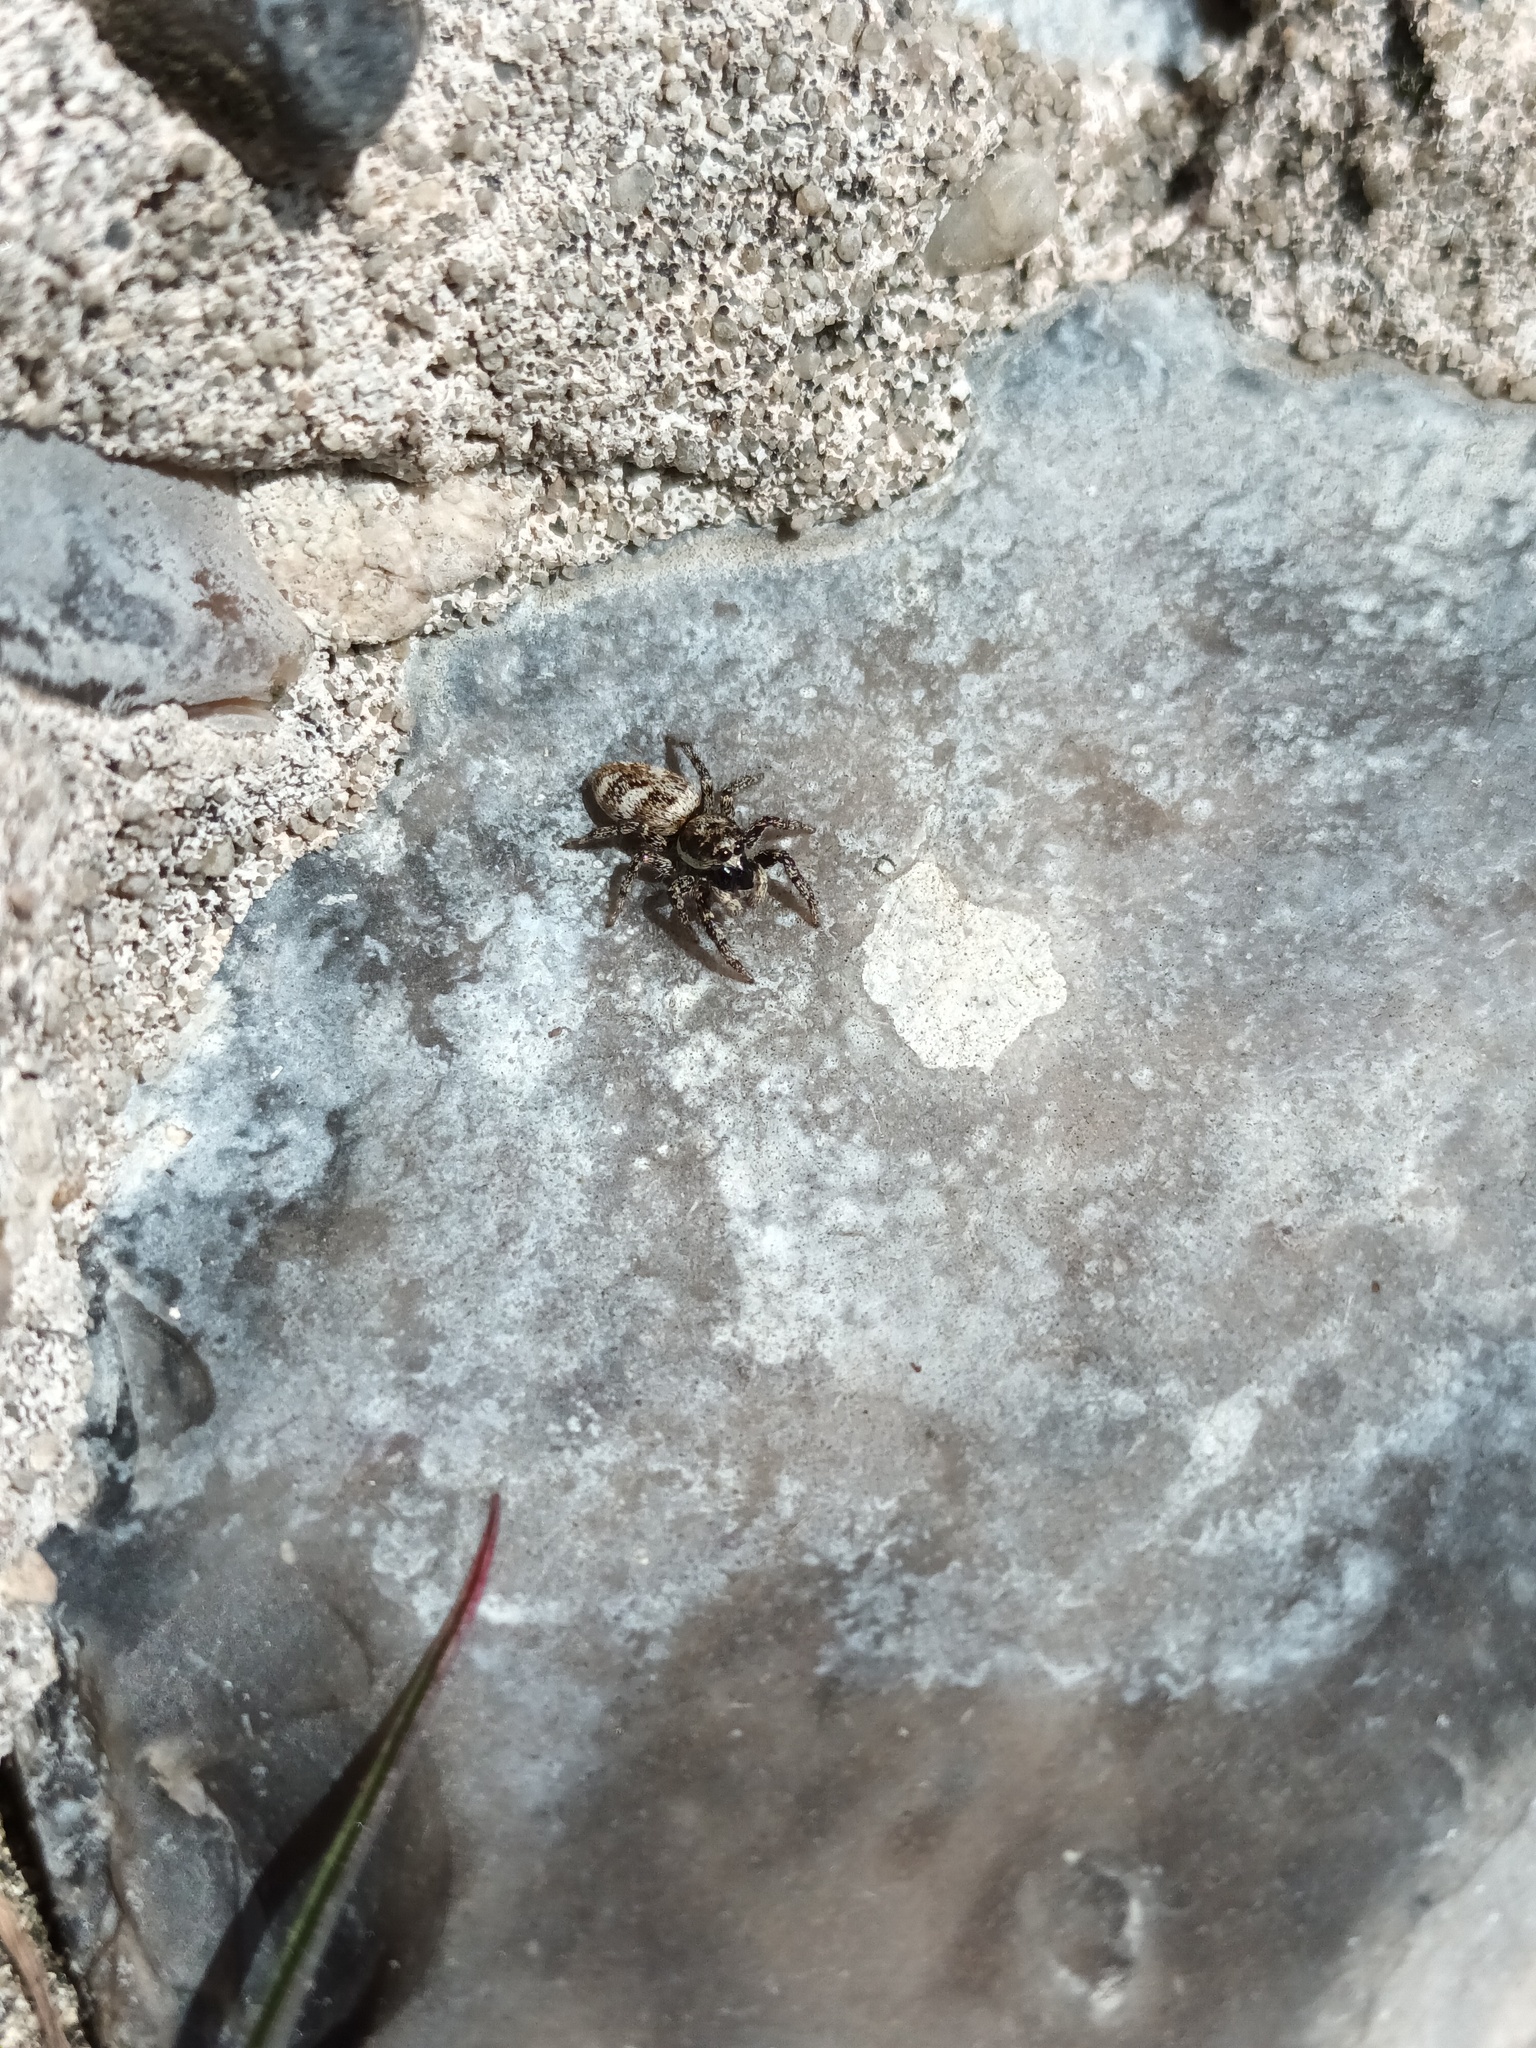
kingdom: Animalia
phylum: Arthropoda
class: Arachnida
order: Araneae
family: Salticidae
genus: Salticus
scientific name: Salticus scenicus
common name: Zebra jumper
